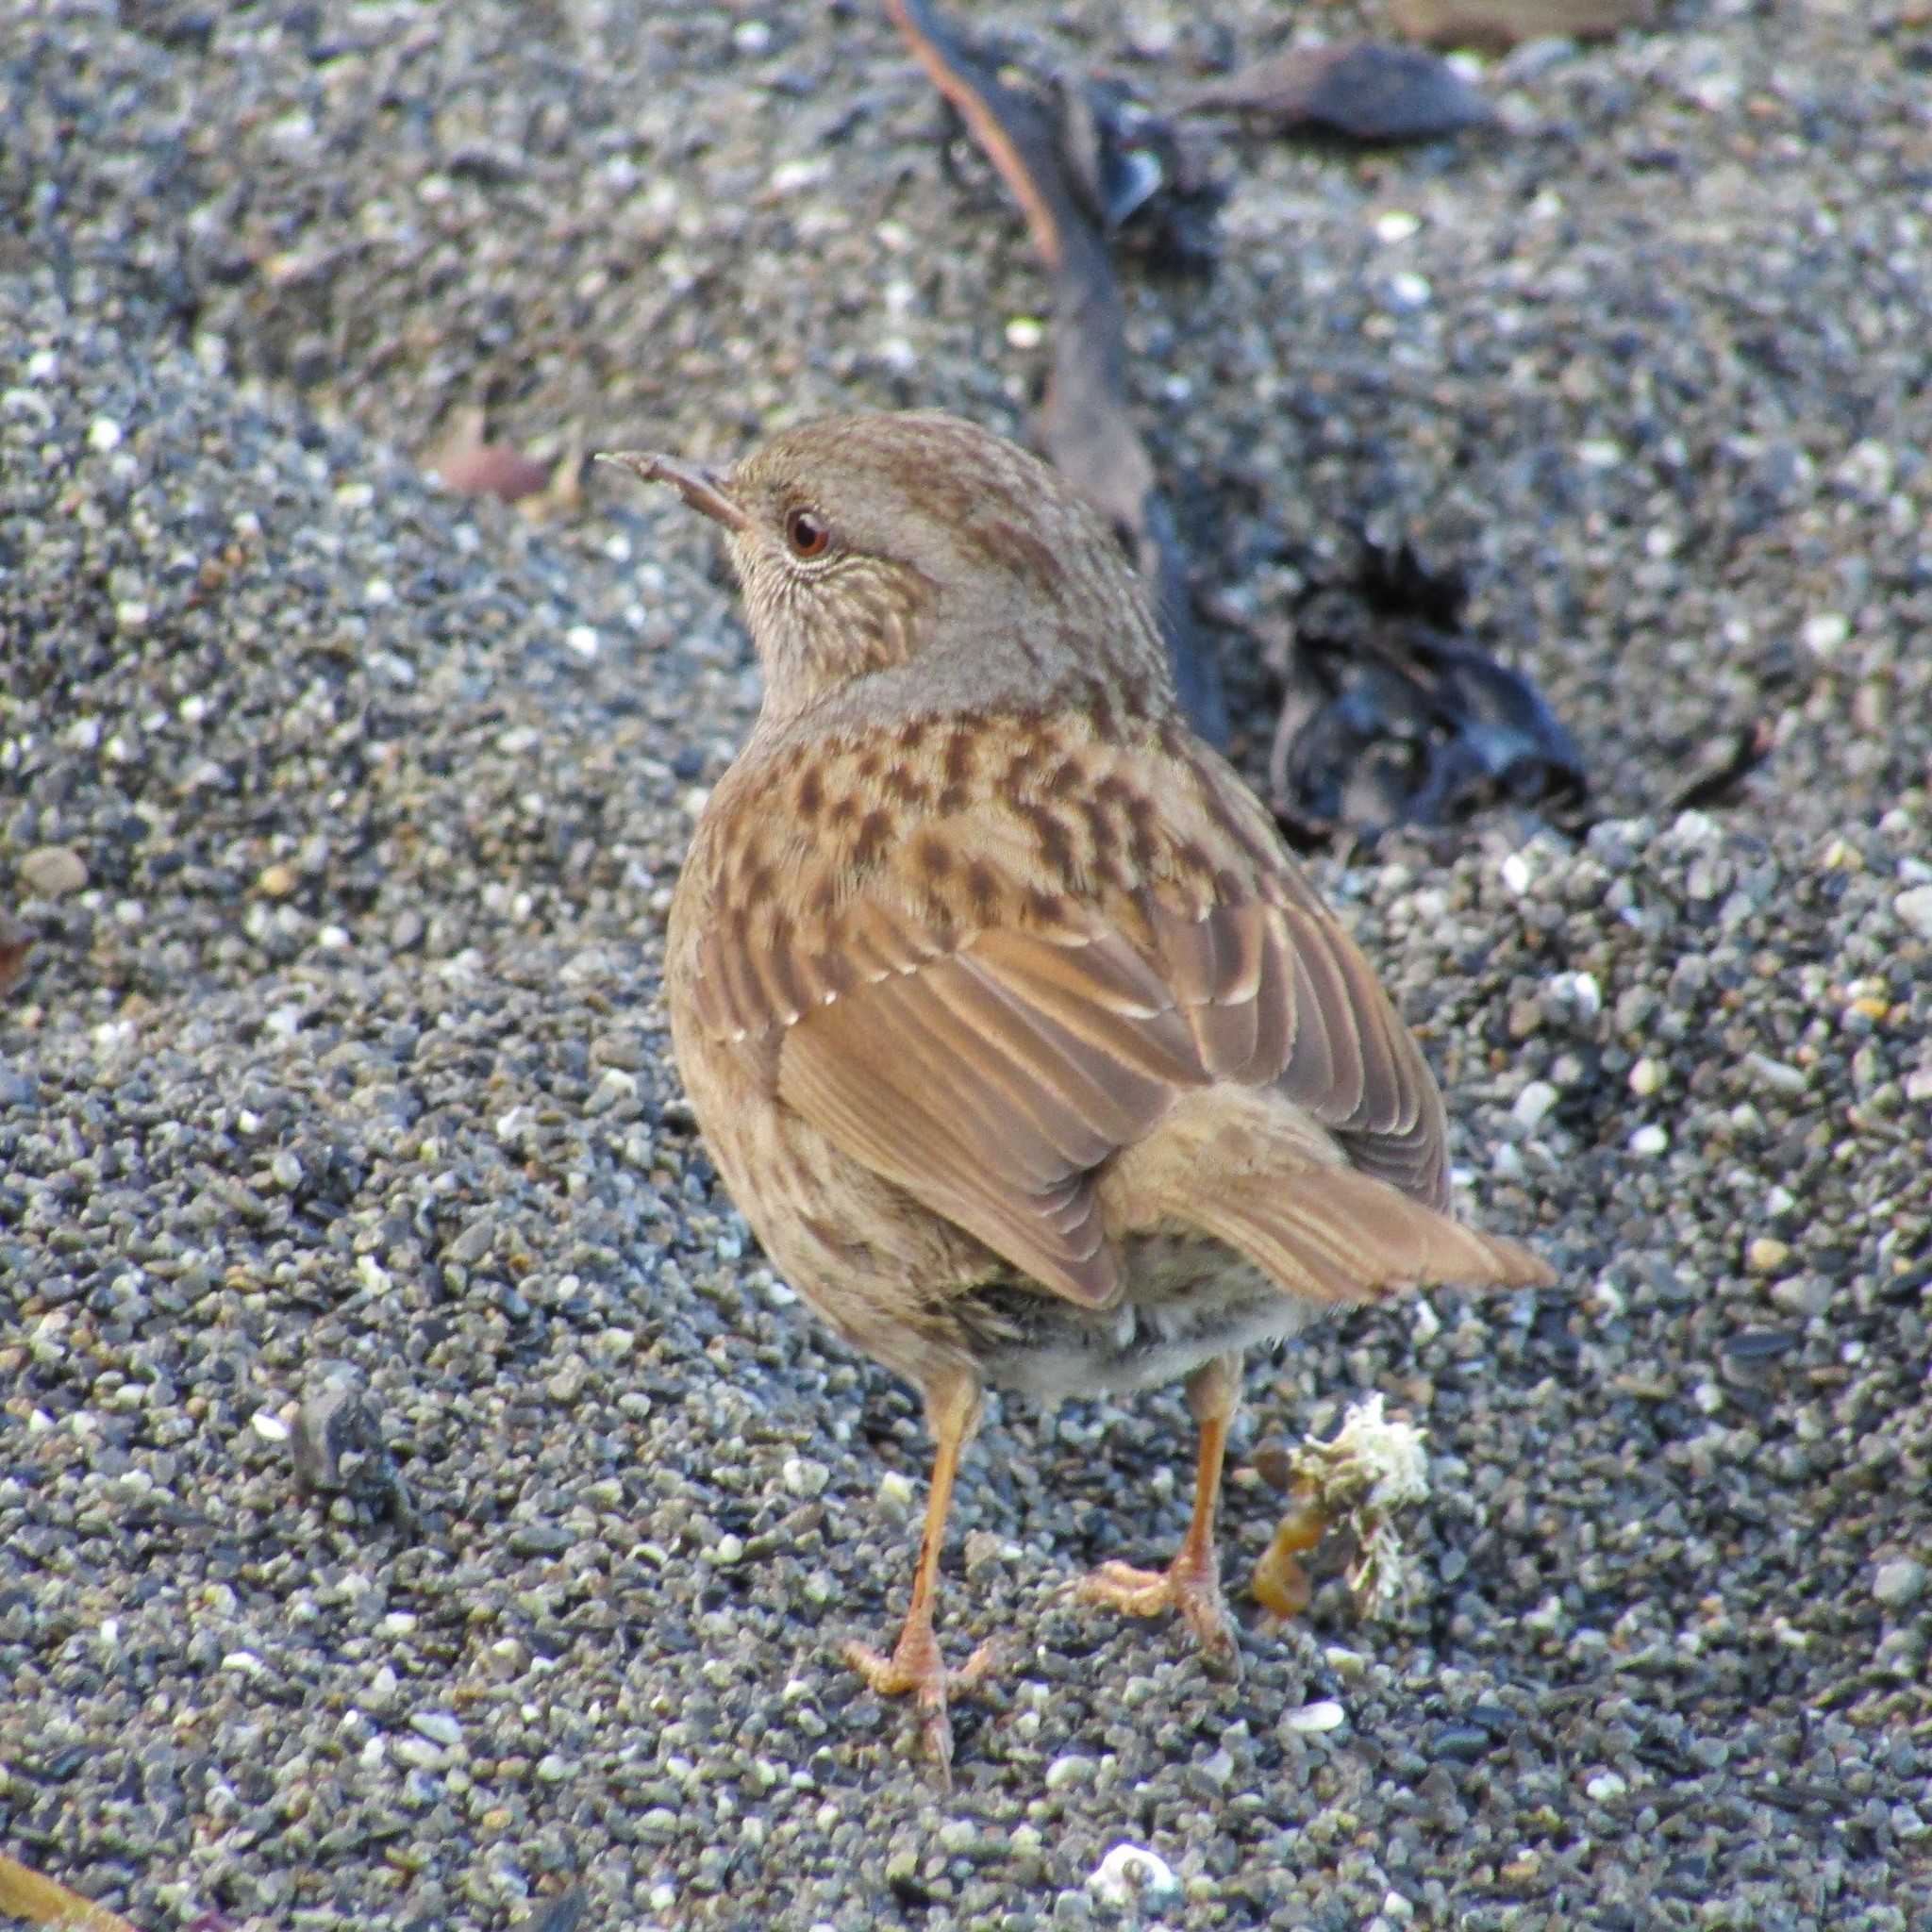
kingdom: Animalia
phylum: Chordata
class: Aves
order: Passeriformes
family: Prunellidae
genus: Prunella
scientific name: Prunella modularis
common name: Dunnock
